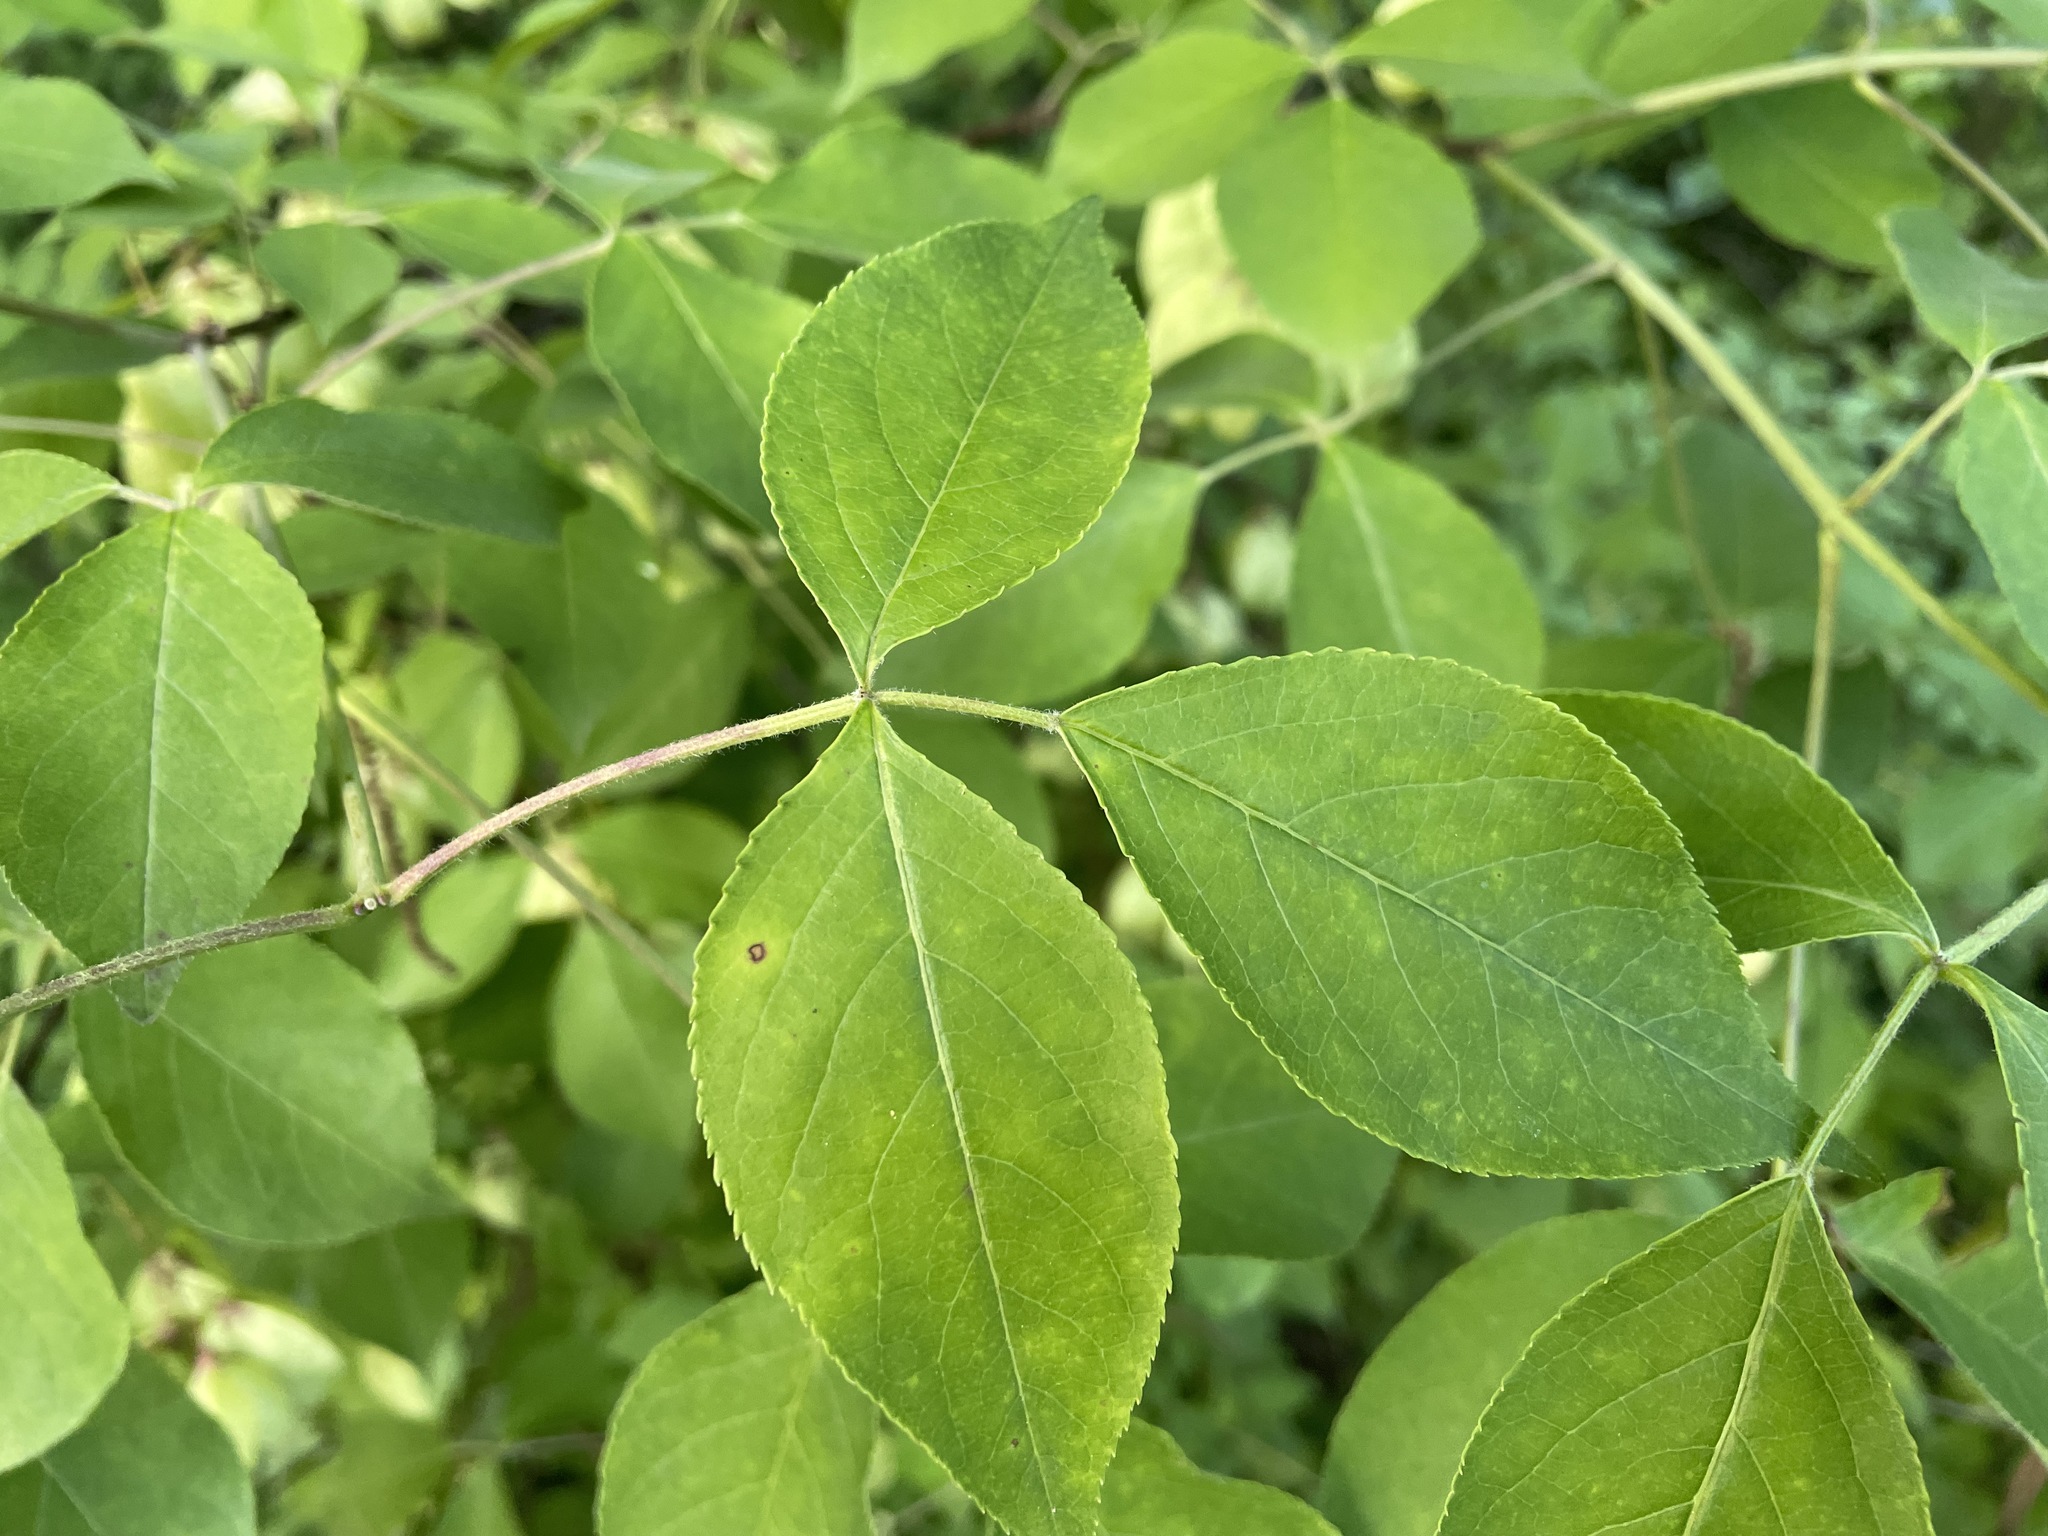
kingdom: Plantae
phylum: Tracheophyta
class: Magnoliopsida
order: Crossosomatales
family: Staphyleaceae
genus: Staphylea
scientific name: Staphylea trifolia
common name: American bladdernut
